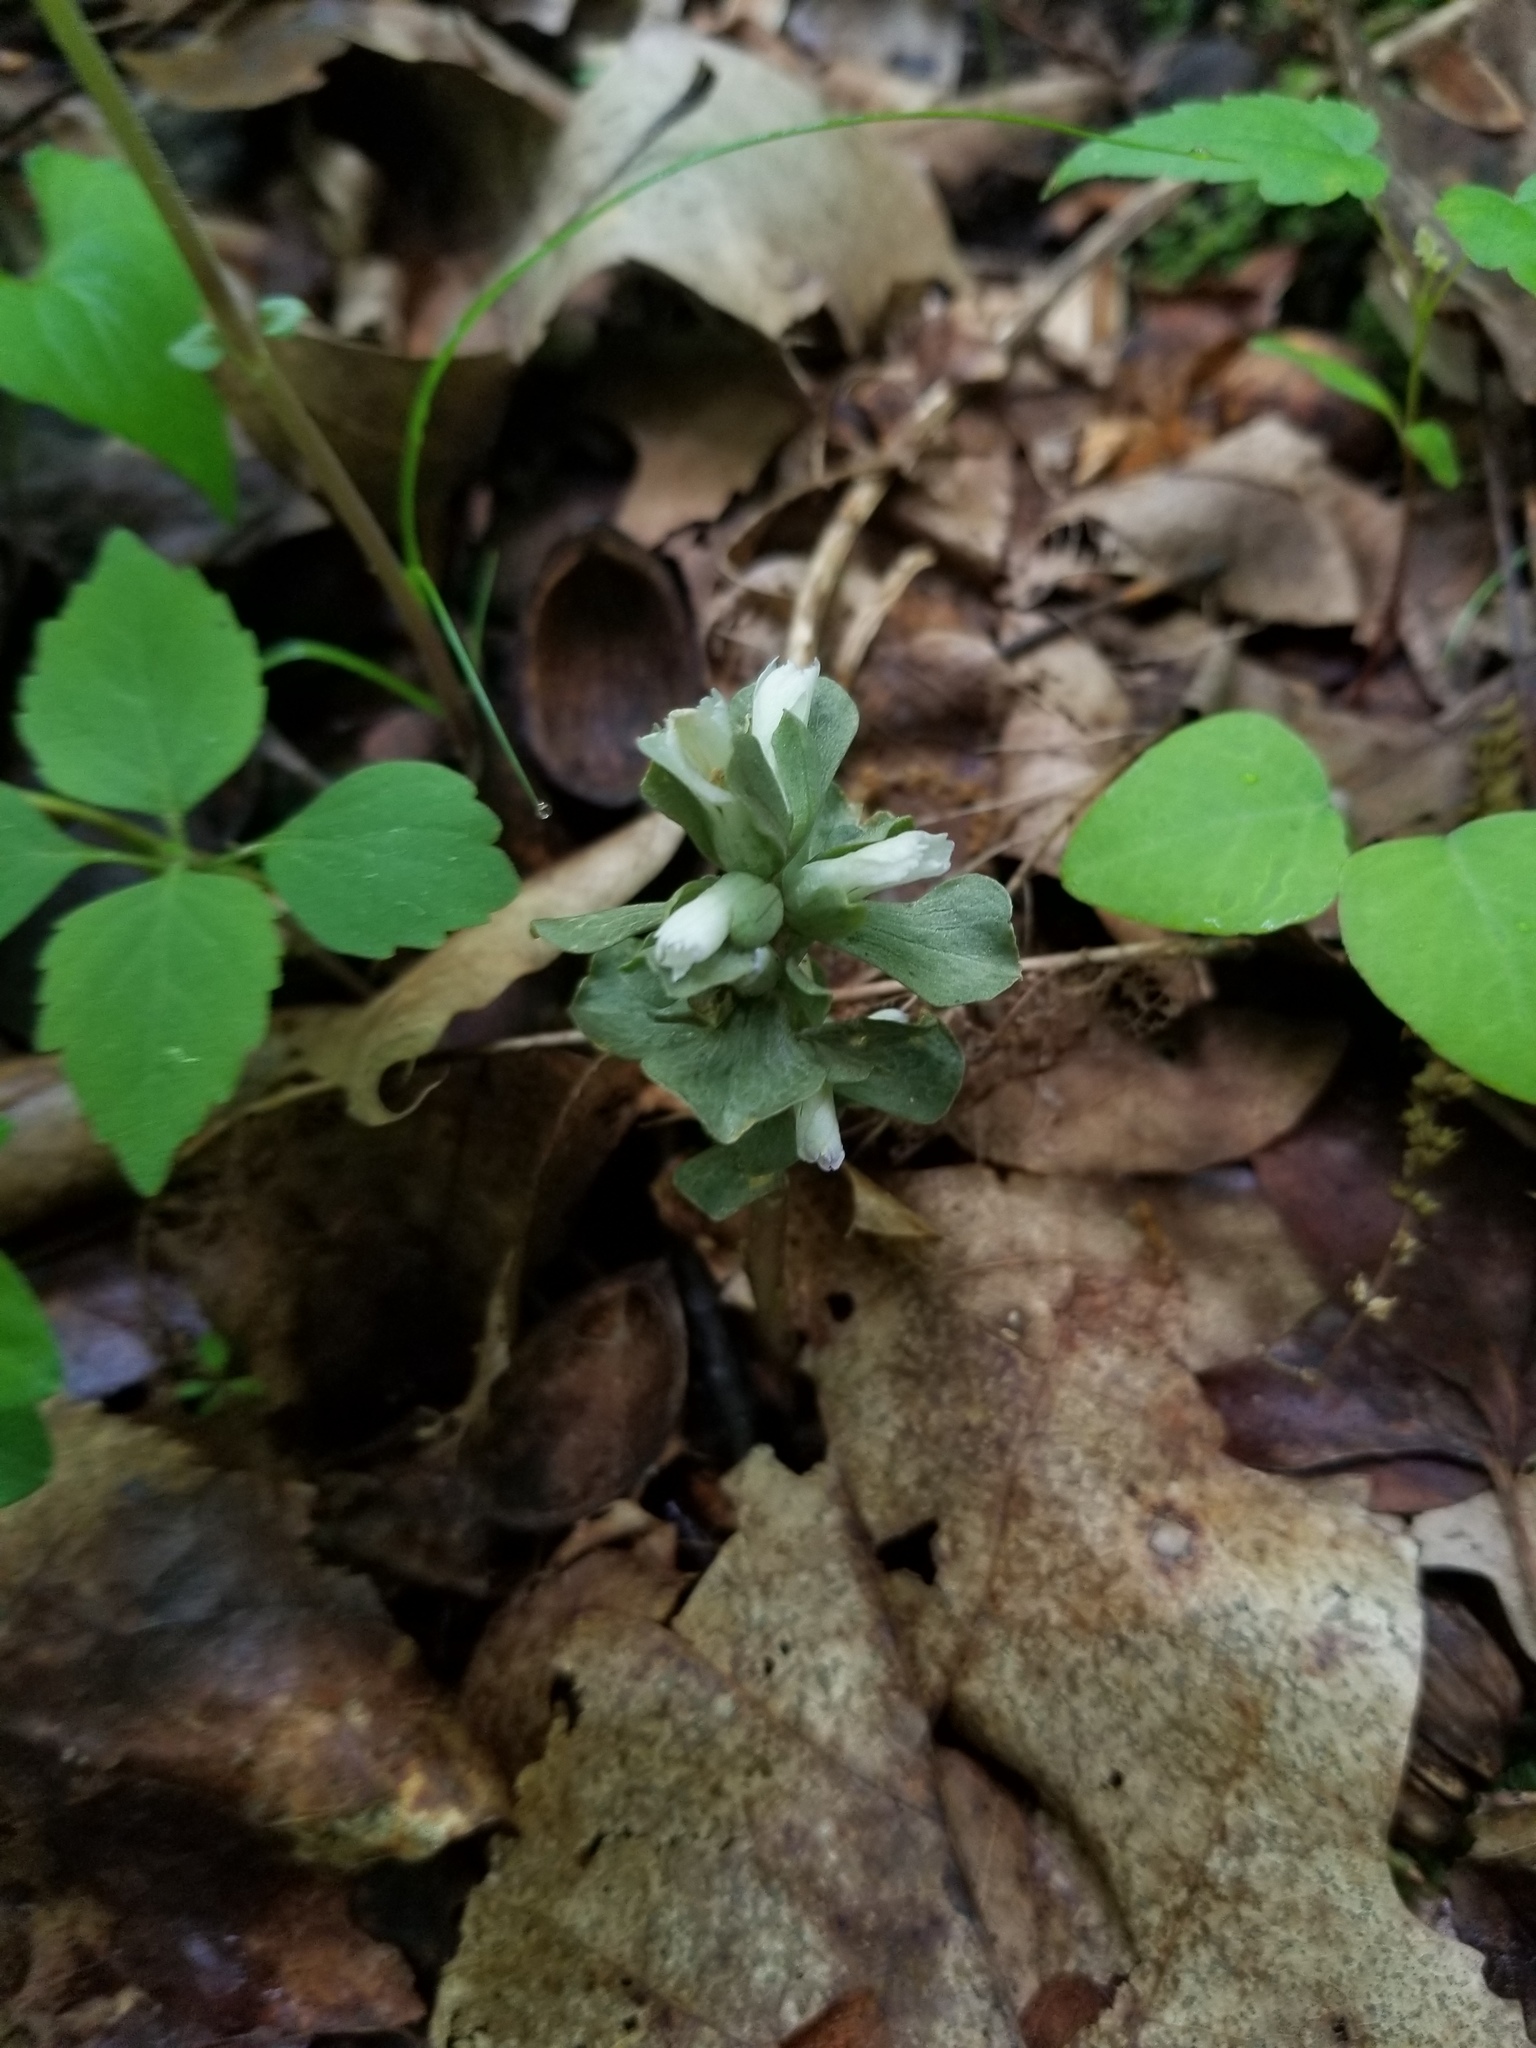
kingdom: Plantae
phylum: Tracheophyta
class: Magnoliopsida
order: Gentianales
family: Gentianaceae
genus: Obolaria
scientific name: Obolaria virginica
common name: Pennywort
